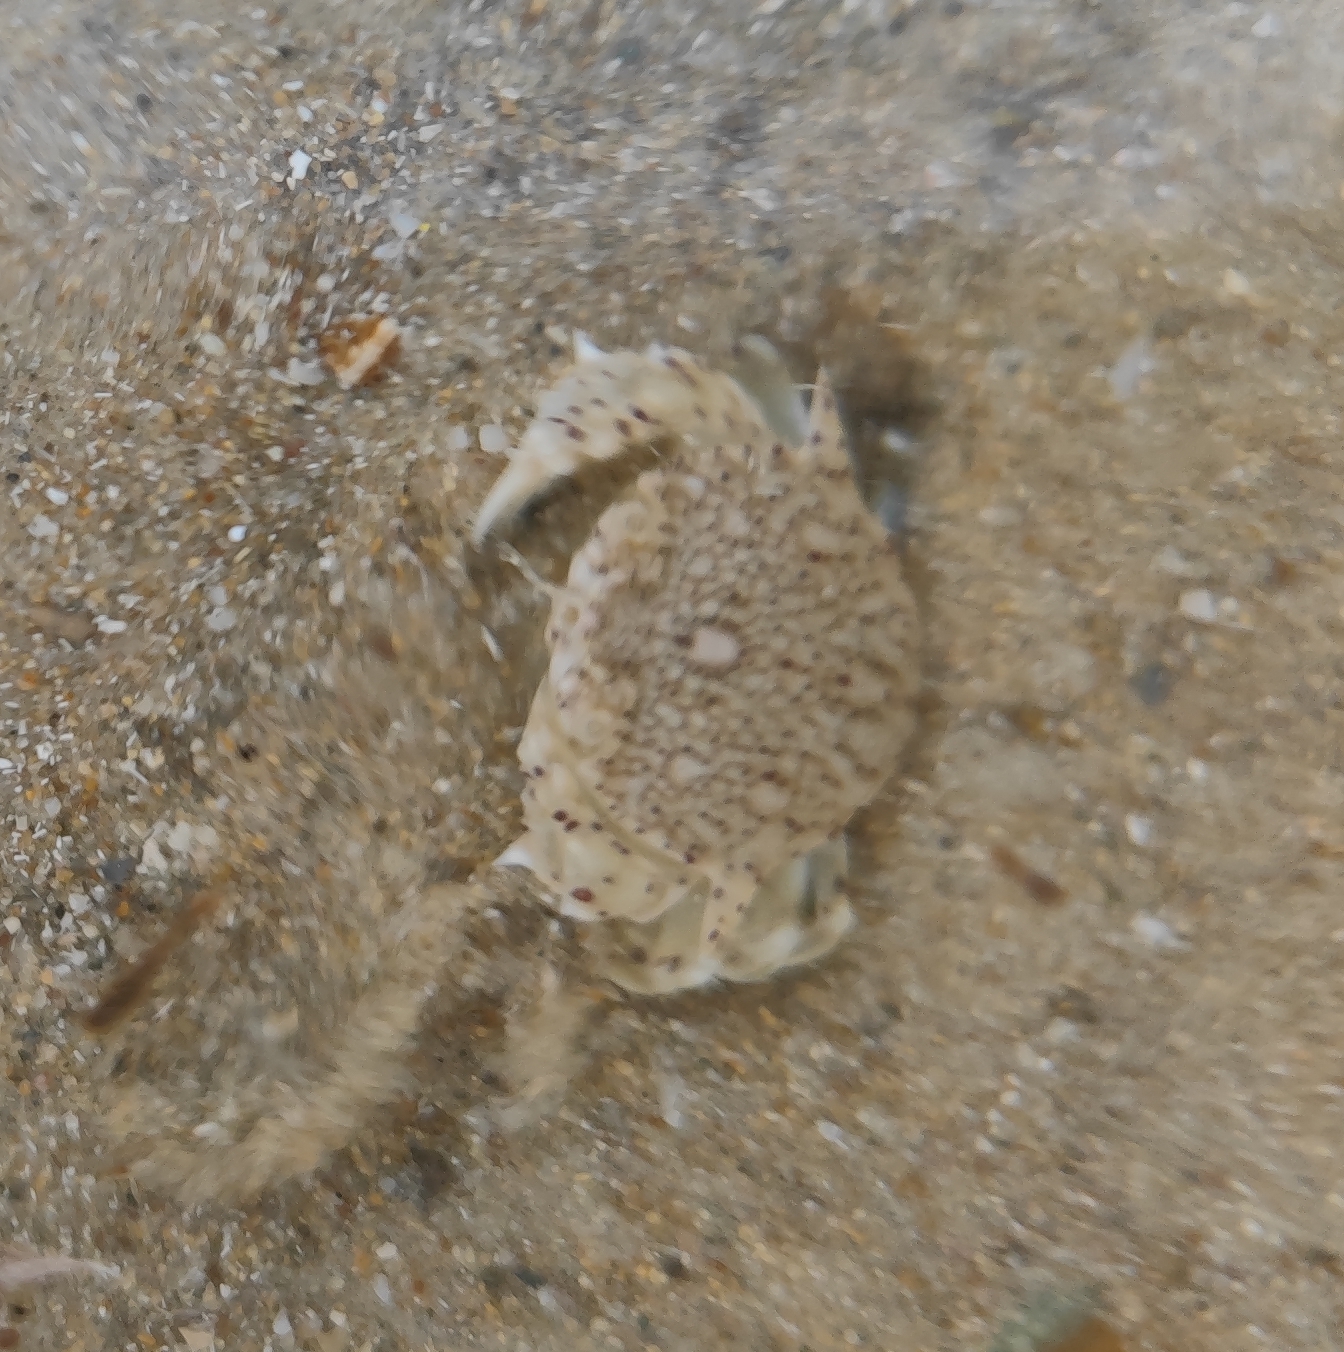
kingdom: Animalia
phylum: Arthropoda
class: Malacostraca
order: Decapoda
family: Matutidae
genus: Matuta
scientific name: Matuta victor
